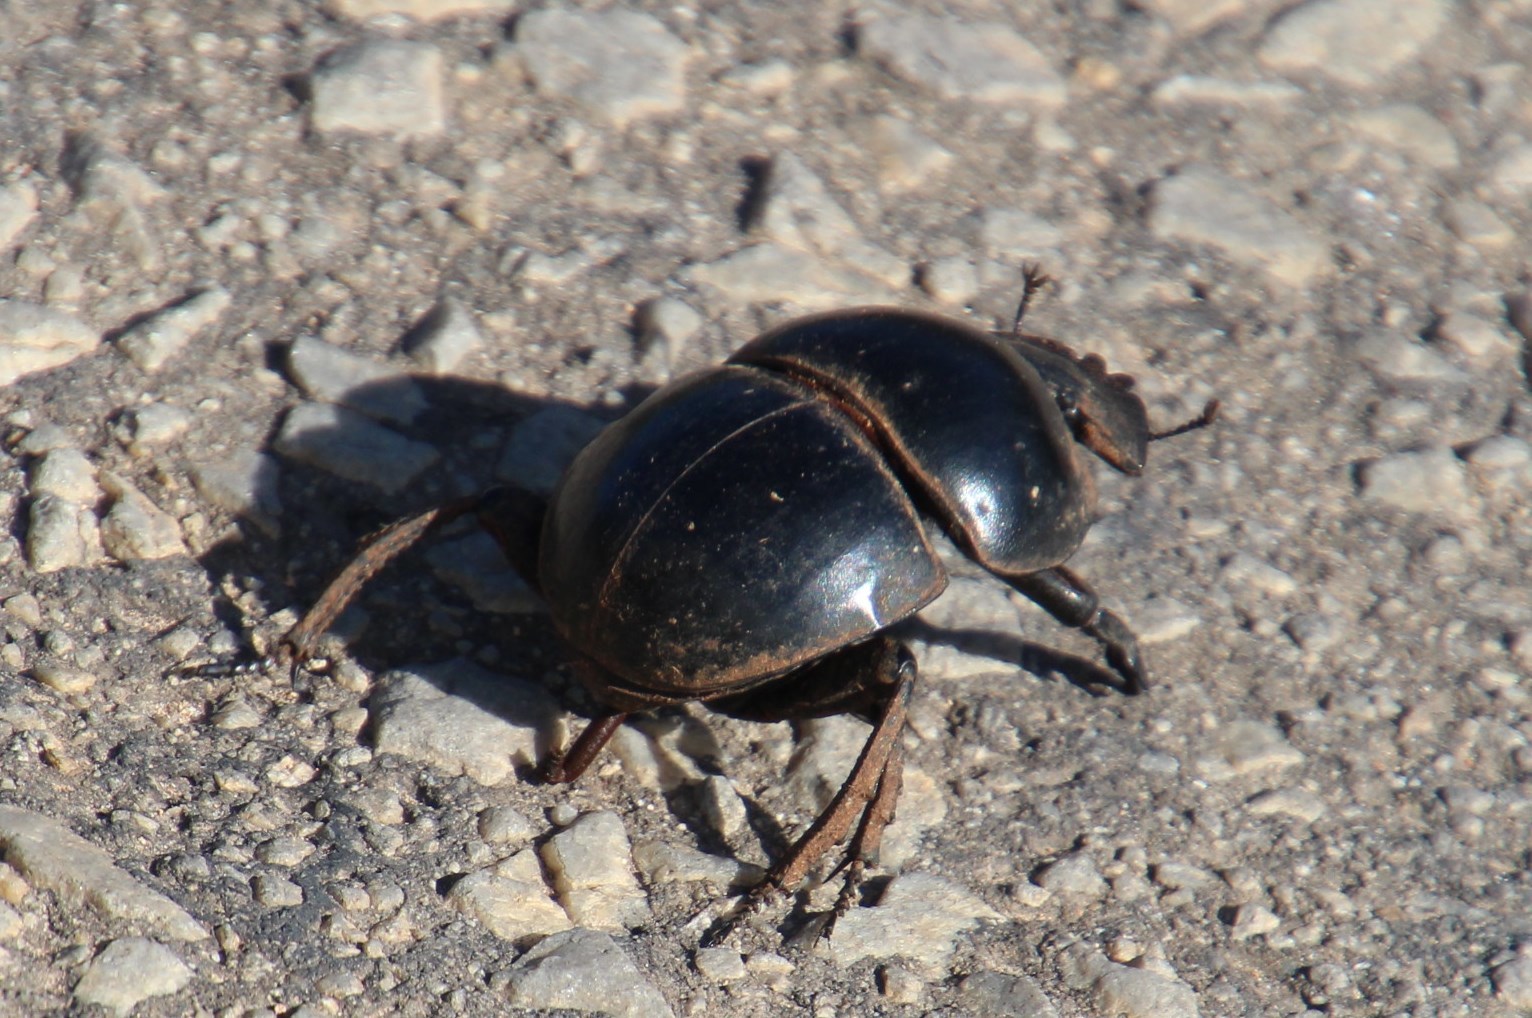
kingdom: Animalia
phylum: Arthropoda
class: Insecta
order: Coleoptera
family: Scarabaeidae
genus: Circellium
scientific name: Circellium bacchus
